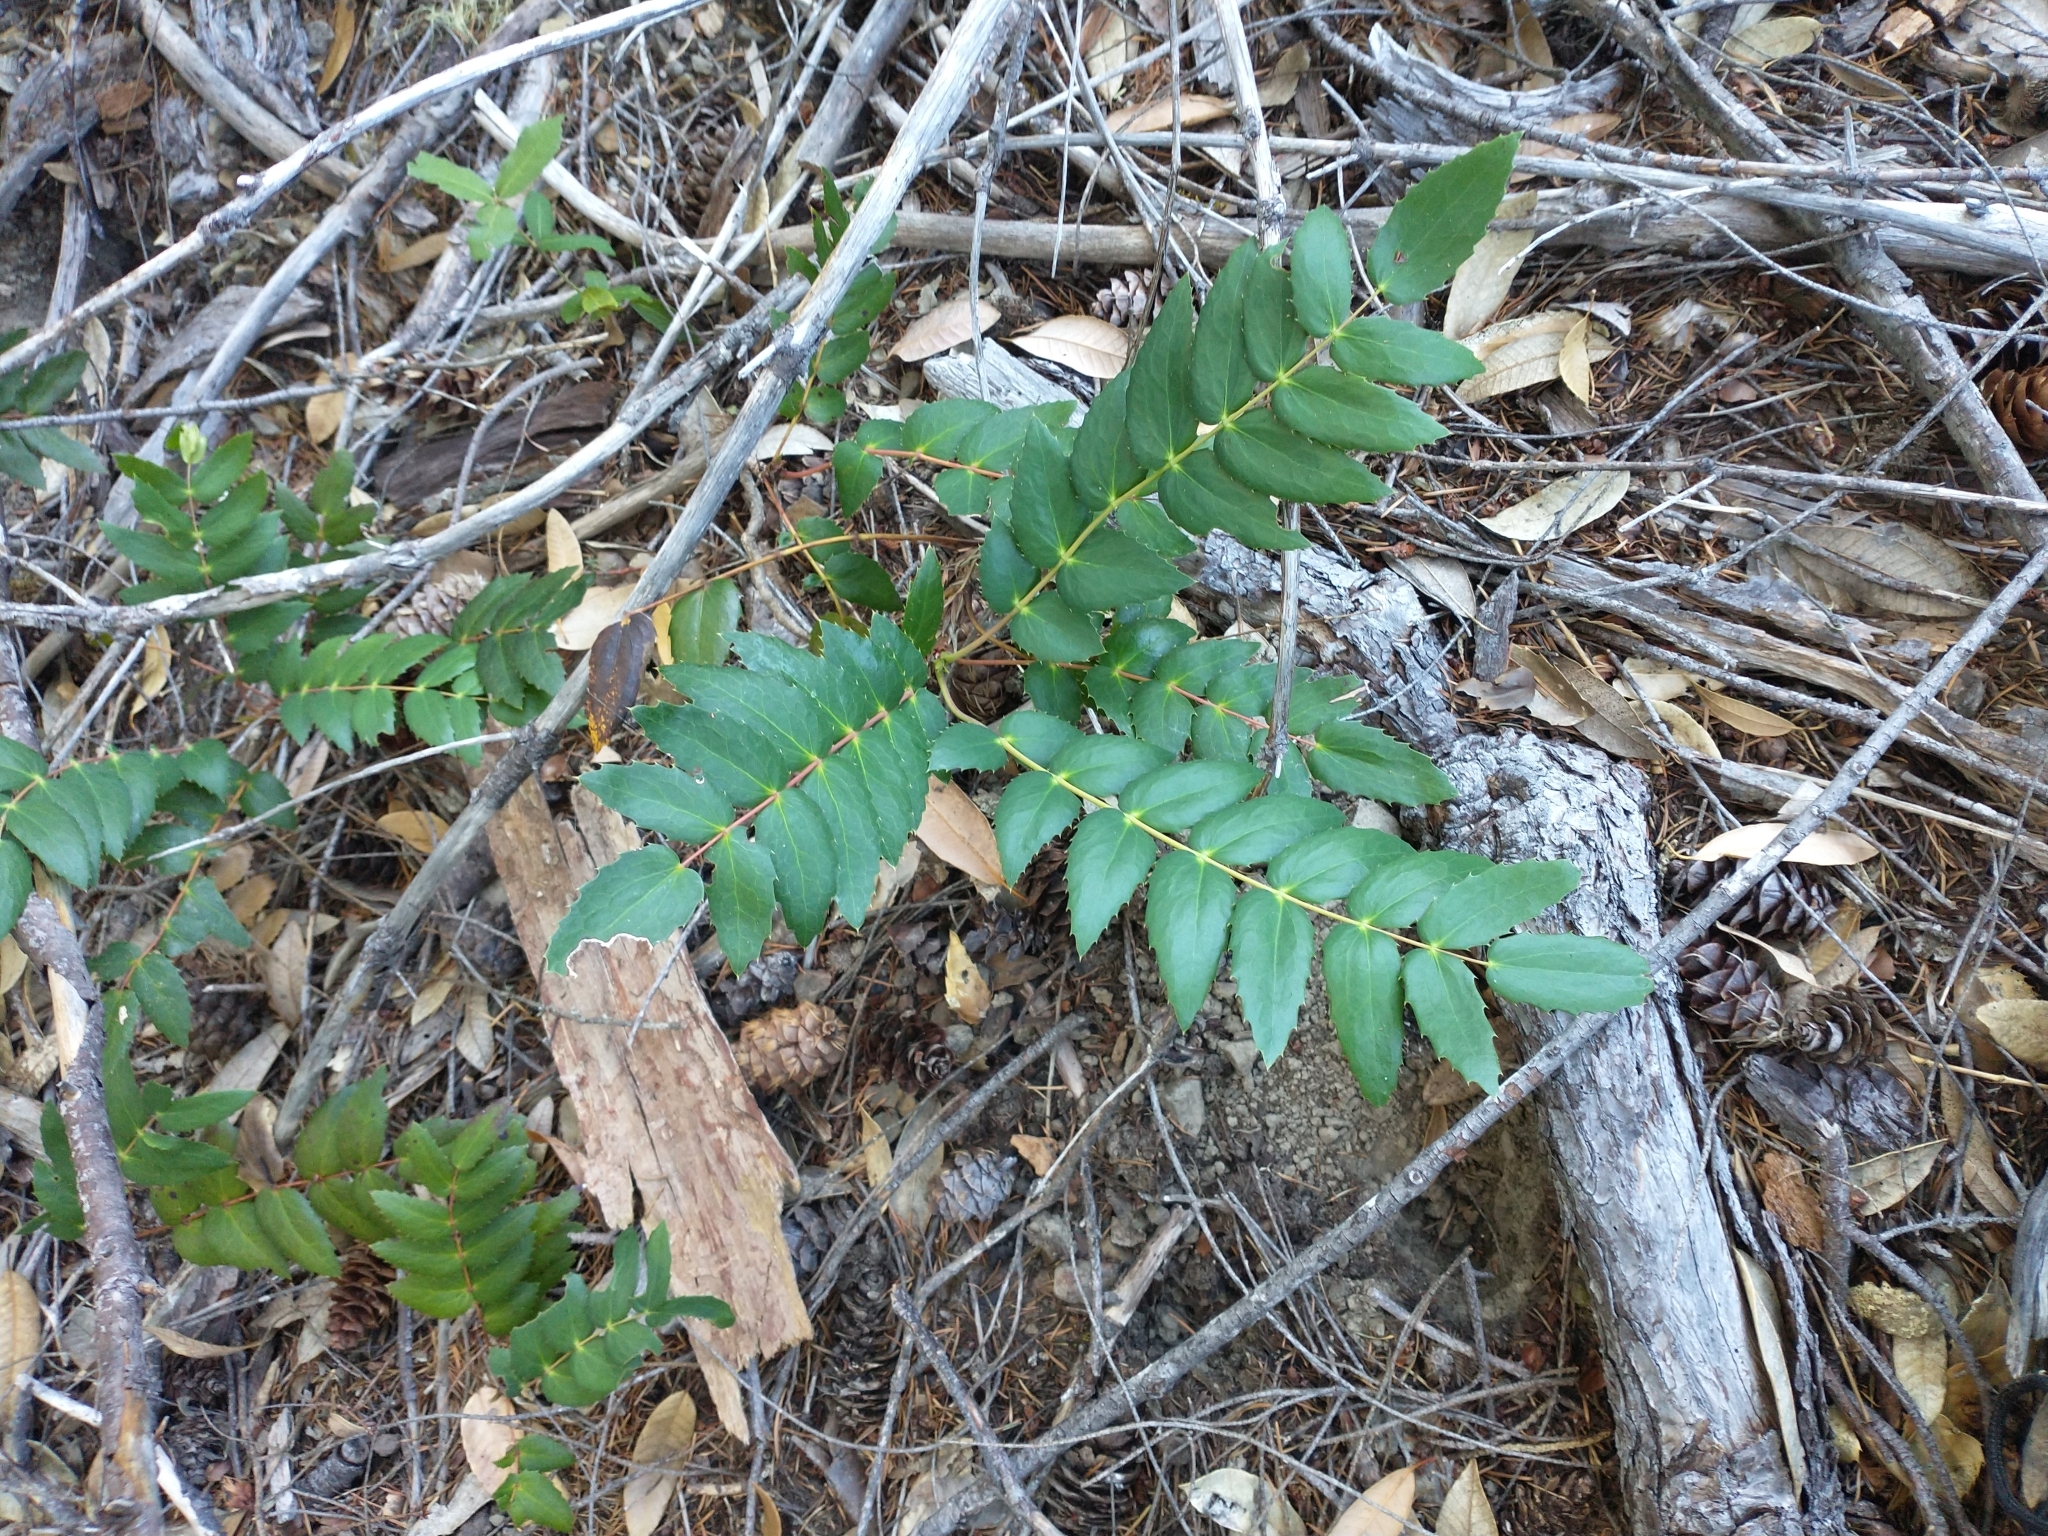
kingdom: Plantae
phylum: Tracheophyta
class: Magnoliopsida
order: Ranunculales
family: Berberidaceae
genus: Mahonia
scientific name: Mahonia nervosa
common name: Cascade oregon-grape
